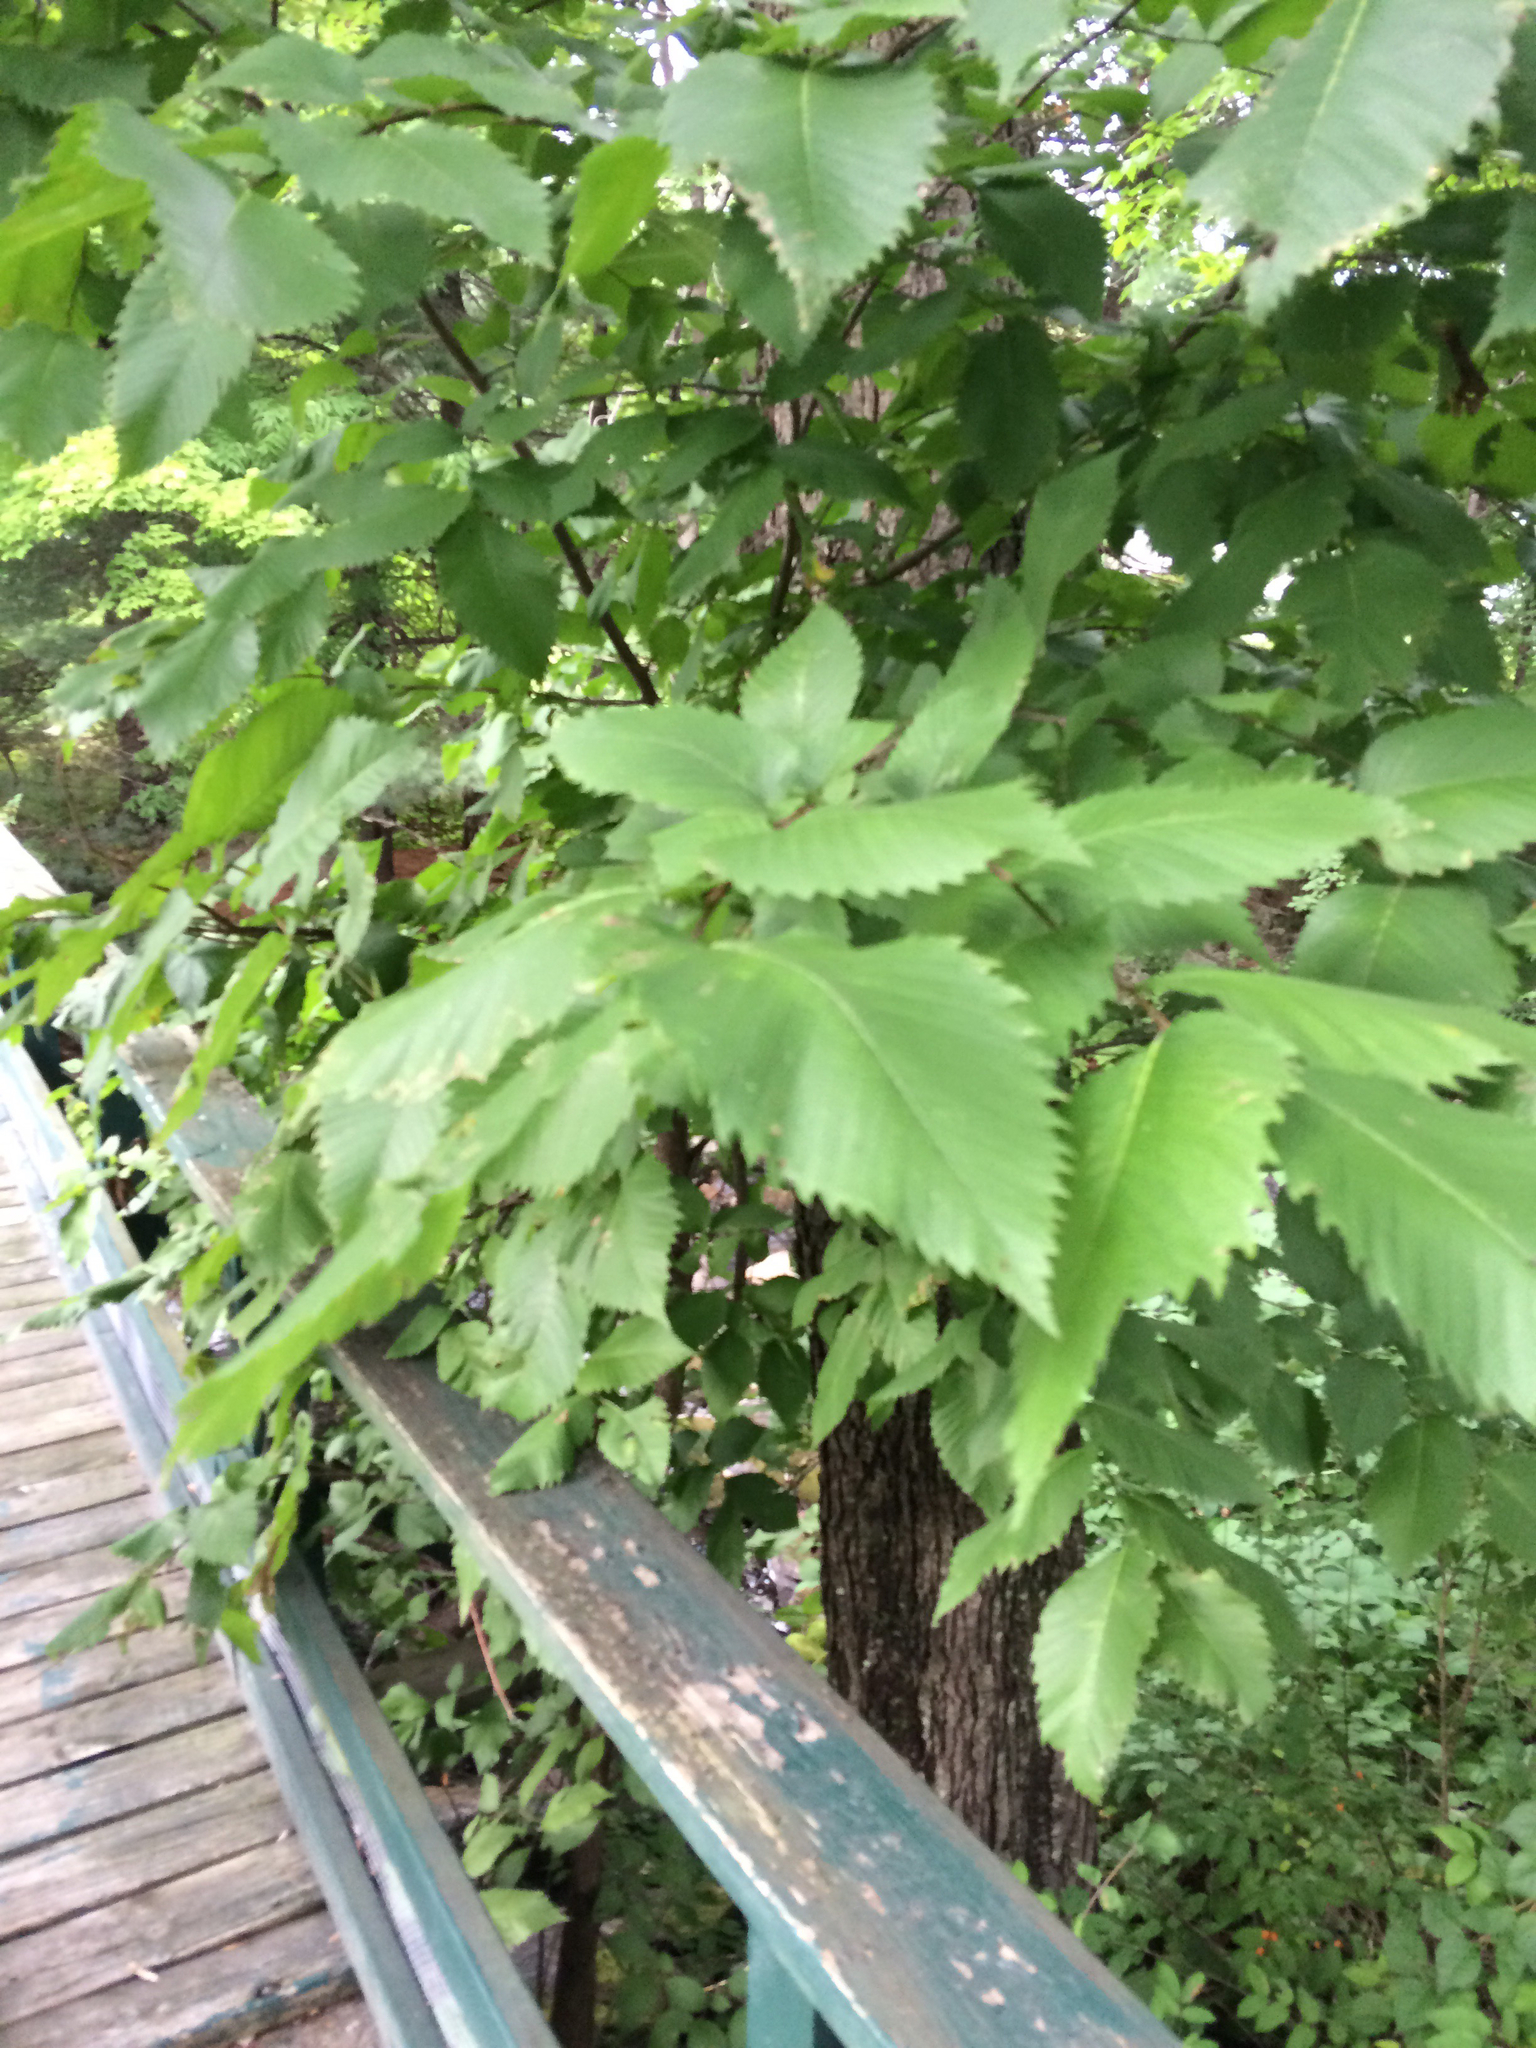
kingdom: Plantae
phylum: Tracheophyta
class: Magnoliopsida
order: Rosales
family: Ulmaceae
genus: Ulmus
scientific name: Ulmus americana
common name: American elm
